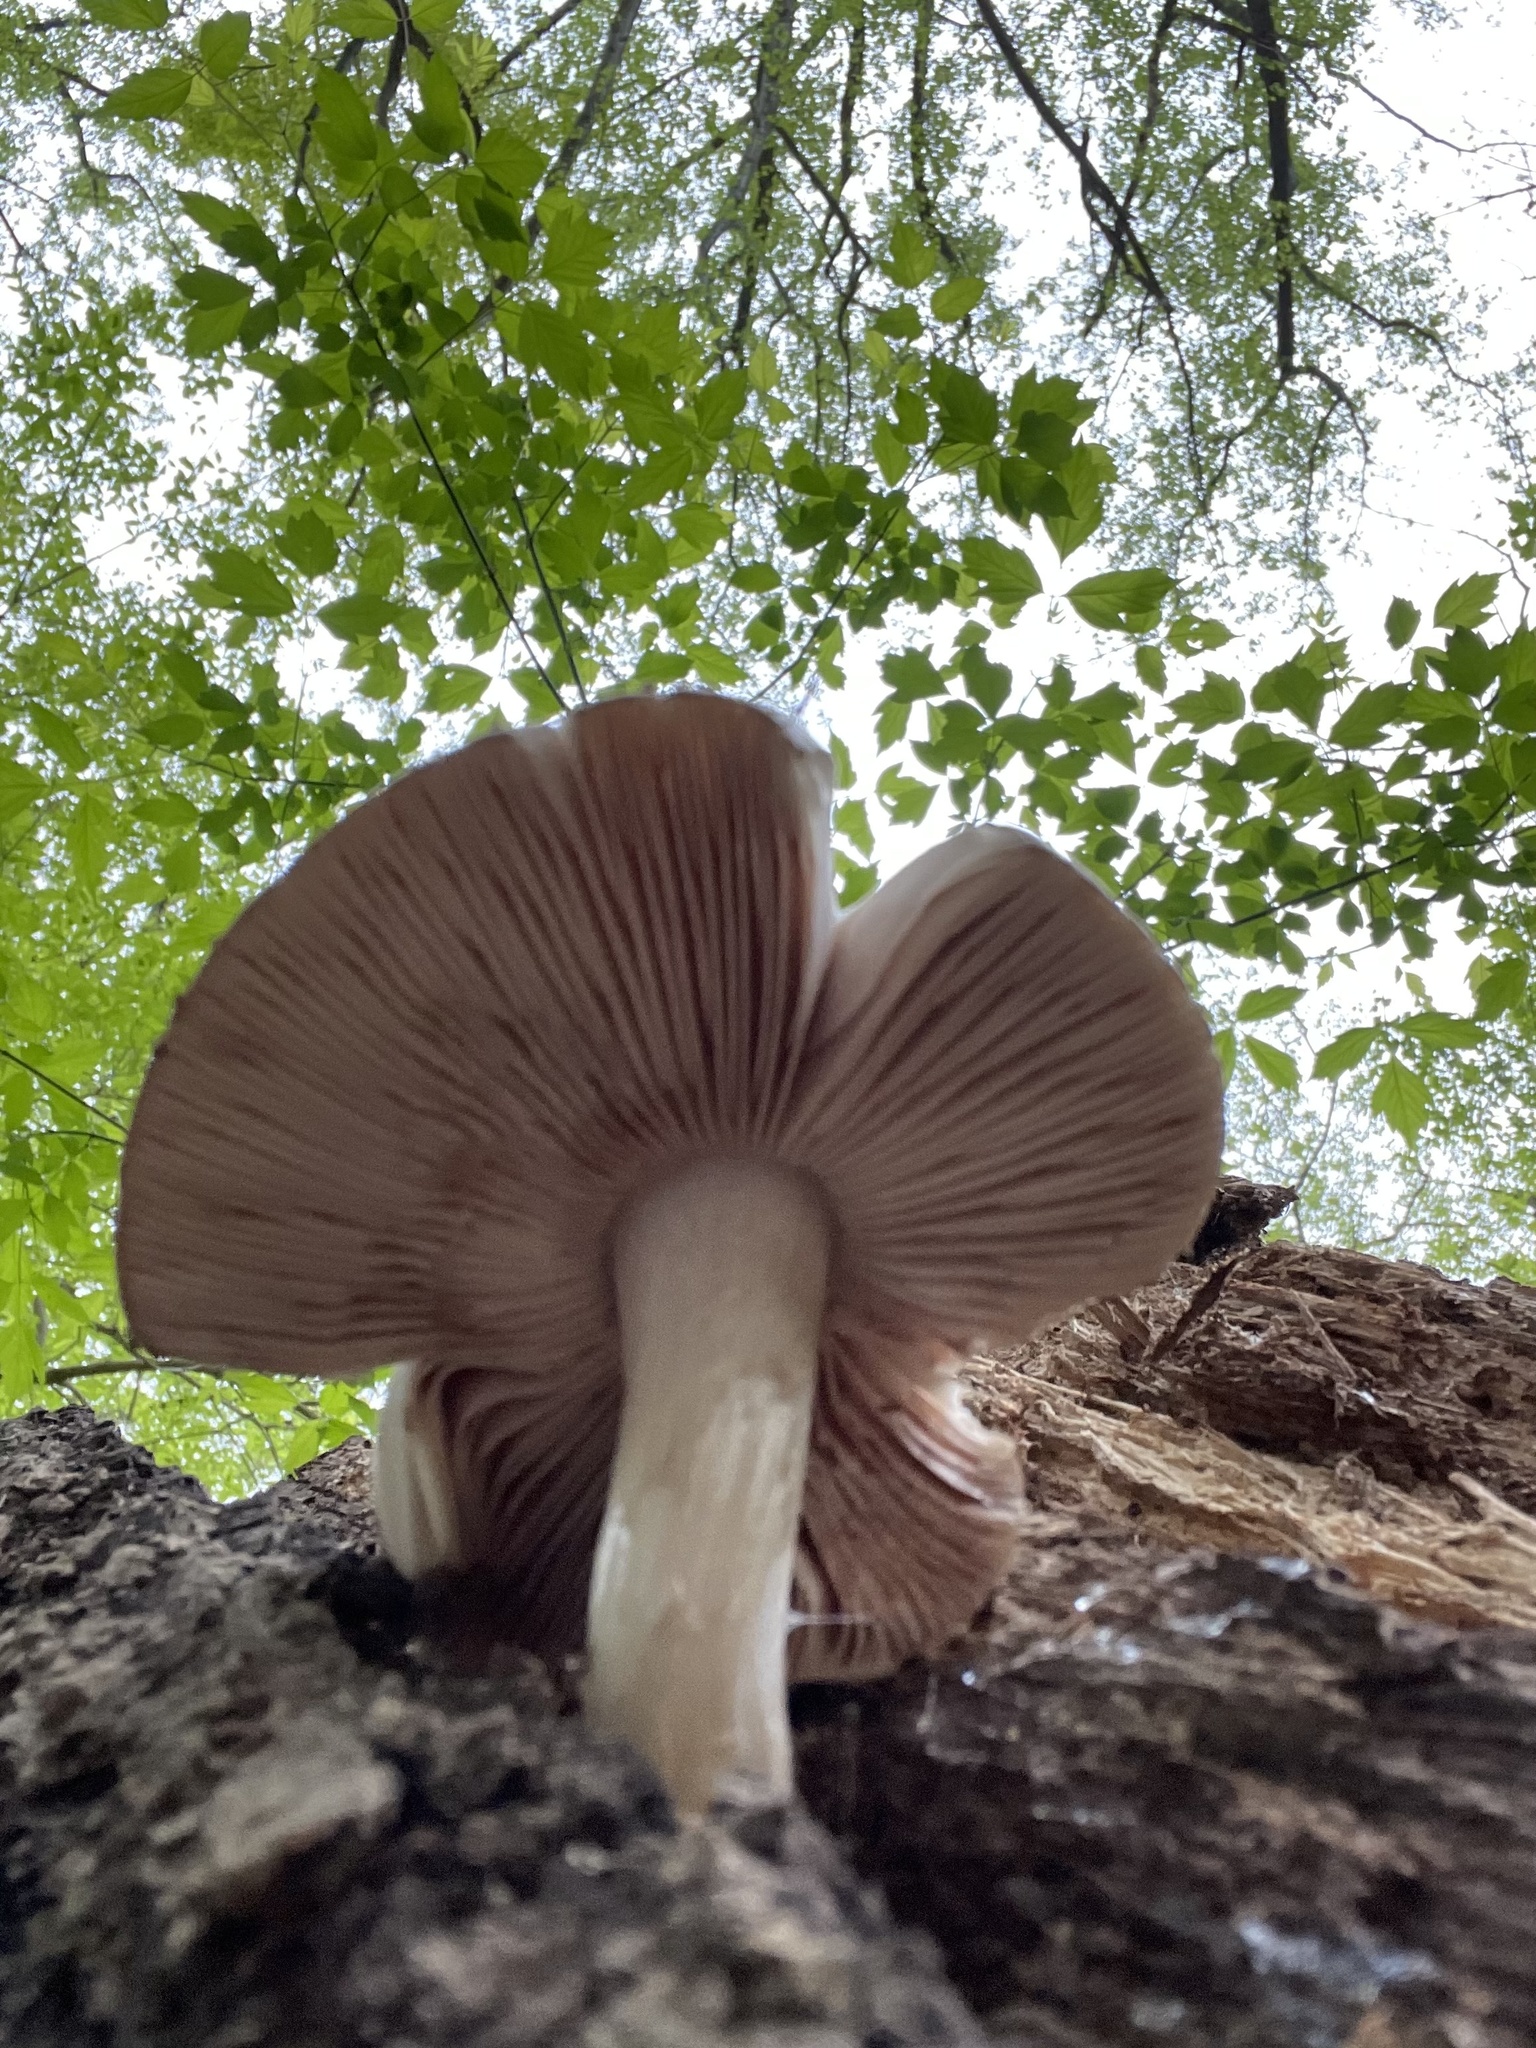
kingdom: Fungi
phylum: Basidiomycota
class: Agaricomycetes
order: Agaricales
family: Pluteaceae
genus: Pluteus
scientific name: Pluteus cervinus
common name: Deer shield
